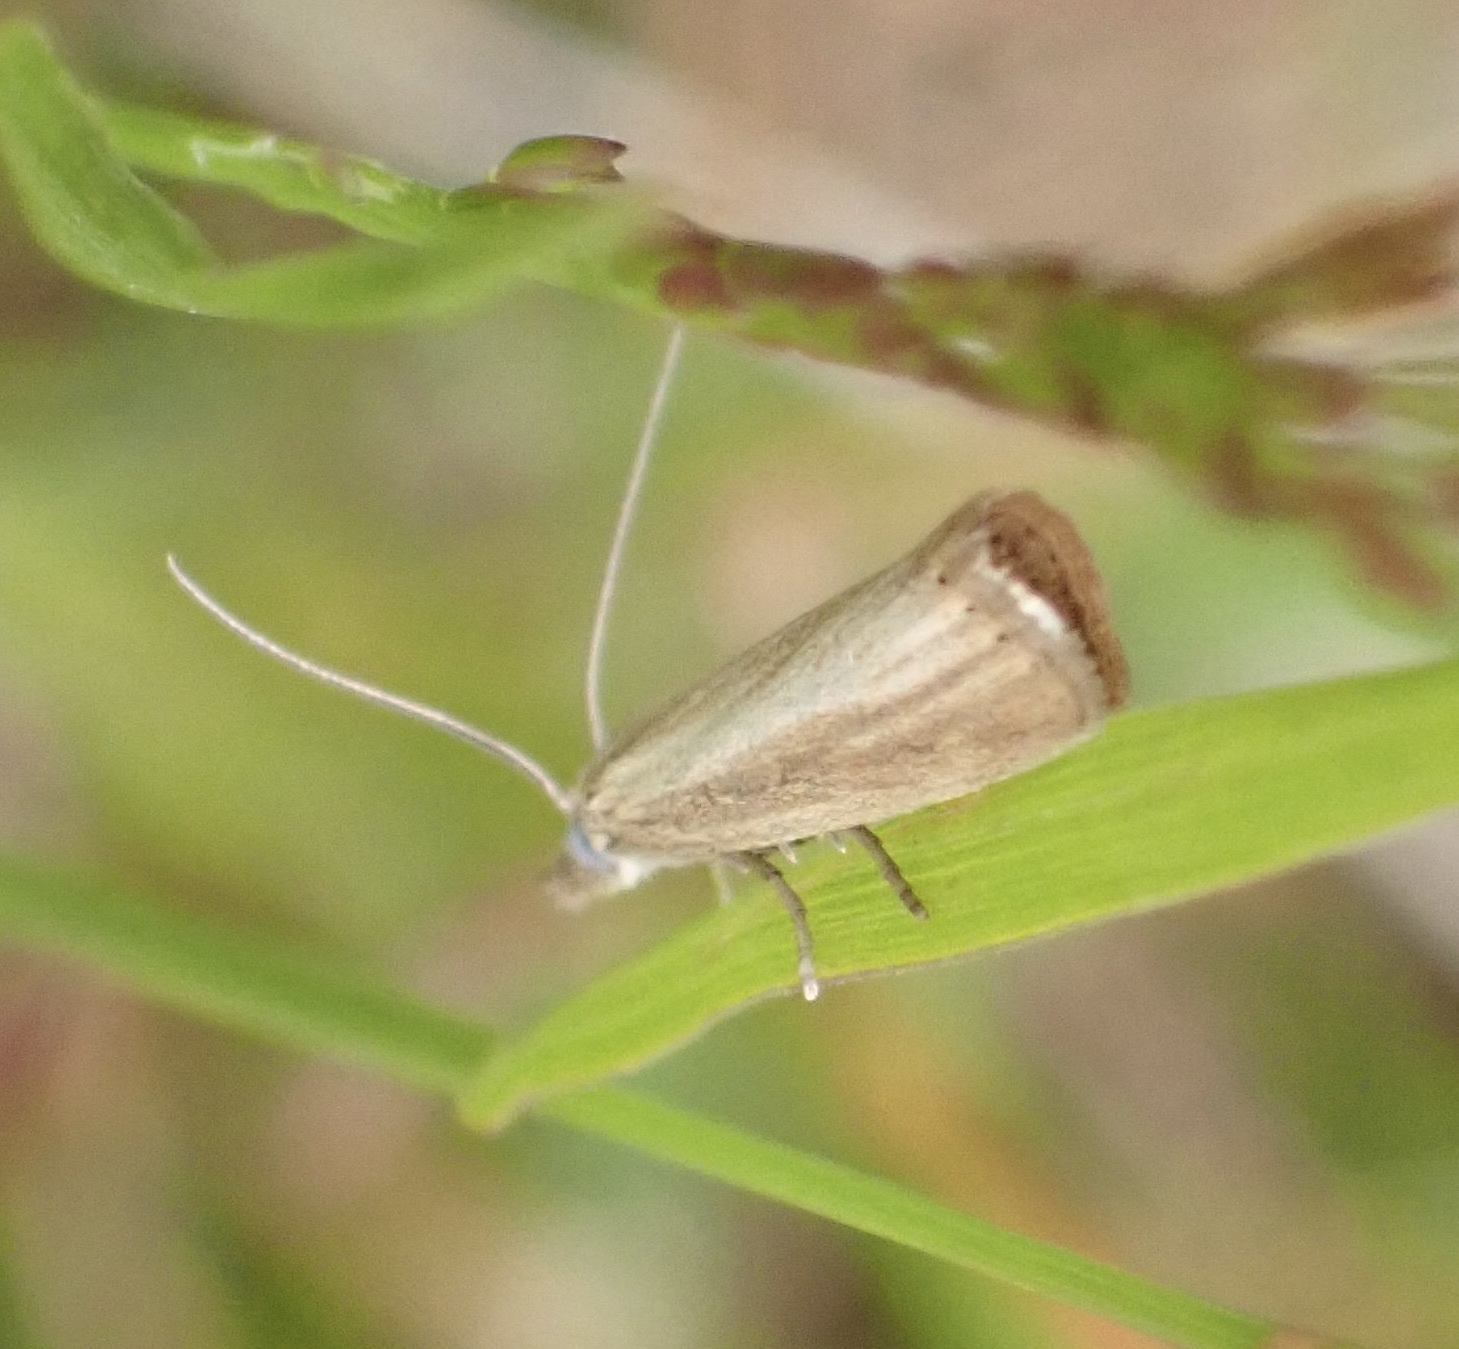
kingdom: Animalia
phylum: Arthropoda
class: Insecta
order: Lepidoptera
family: Crambidae
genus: Agriphila
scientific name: Agriphila straminella
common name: Straw grass-veneer
